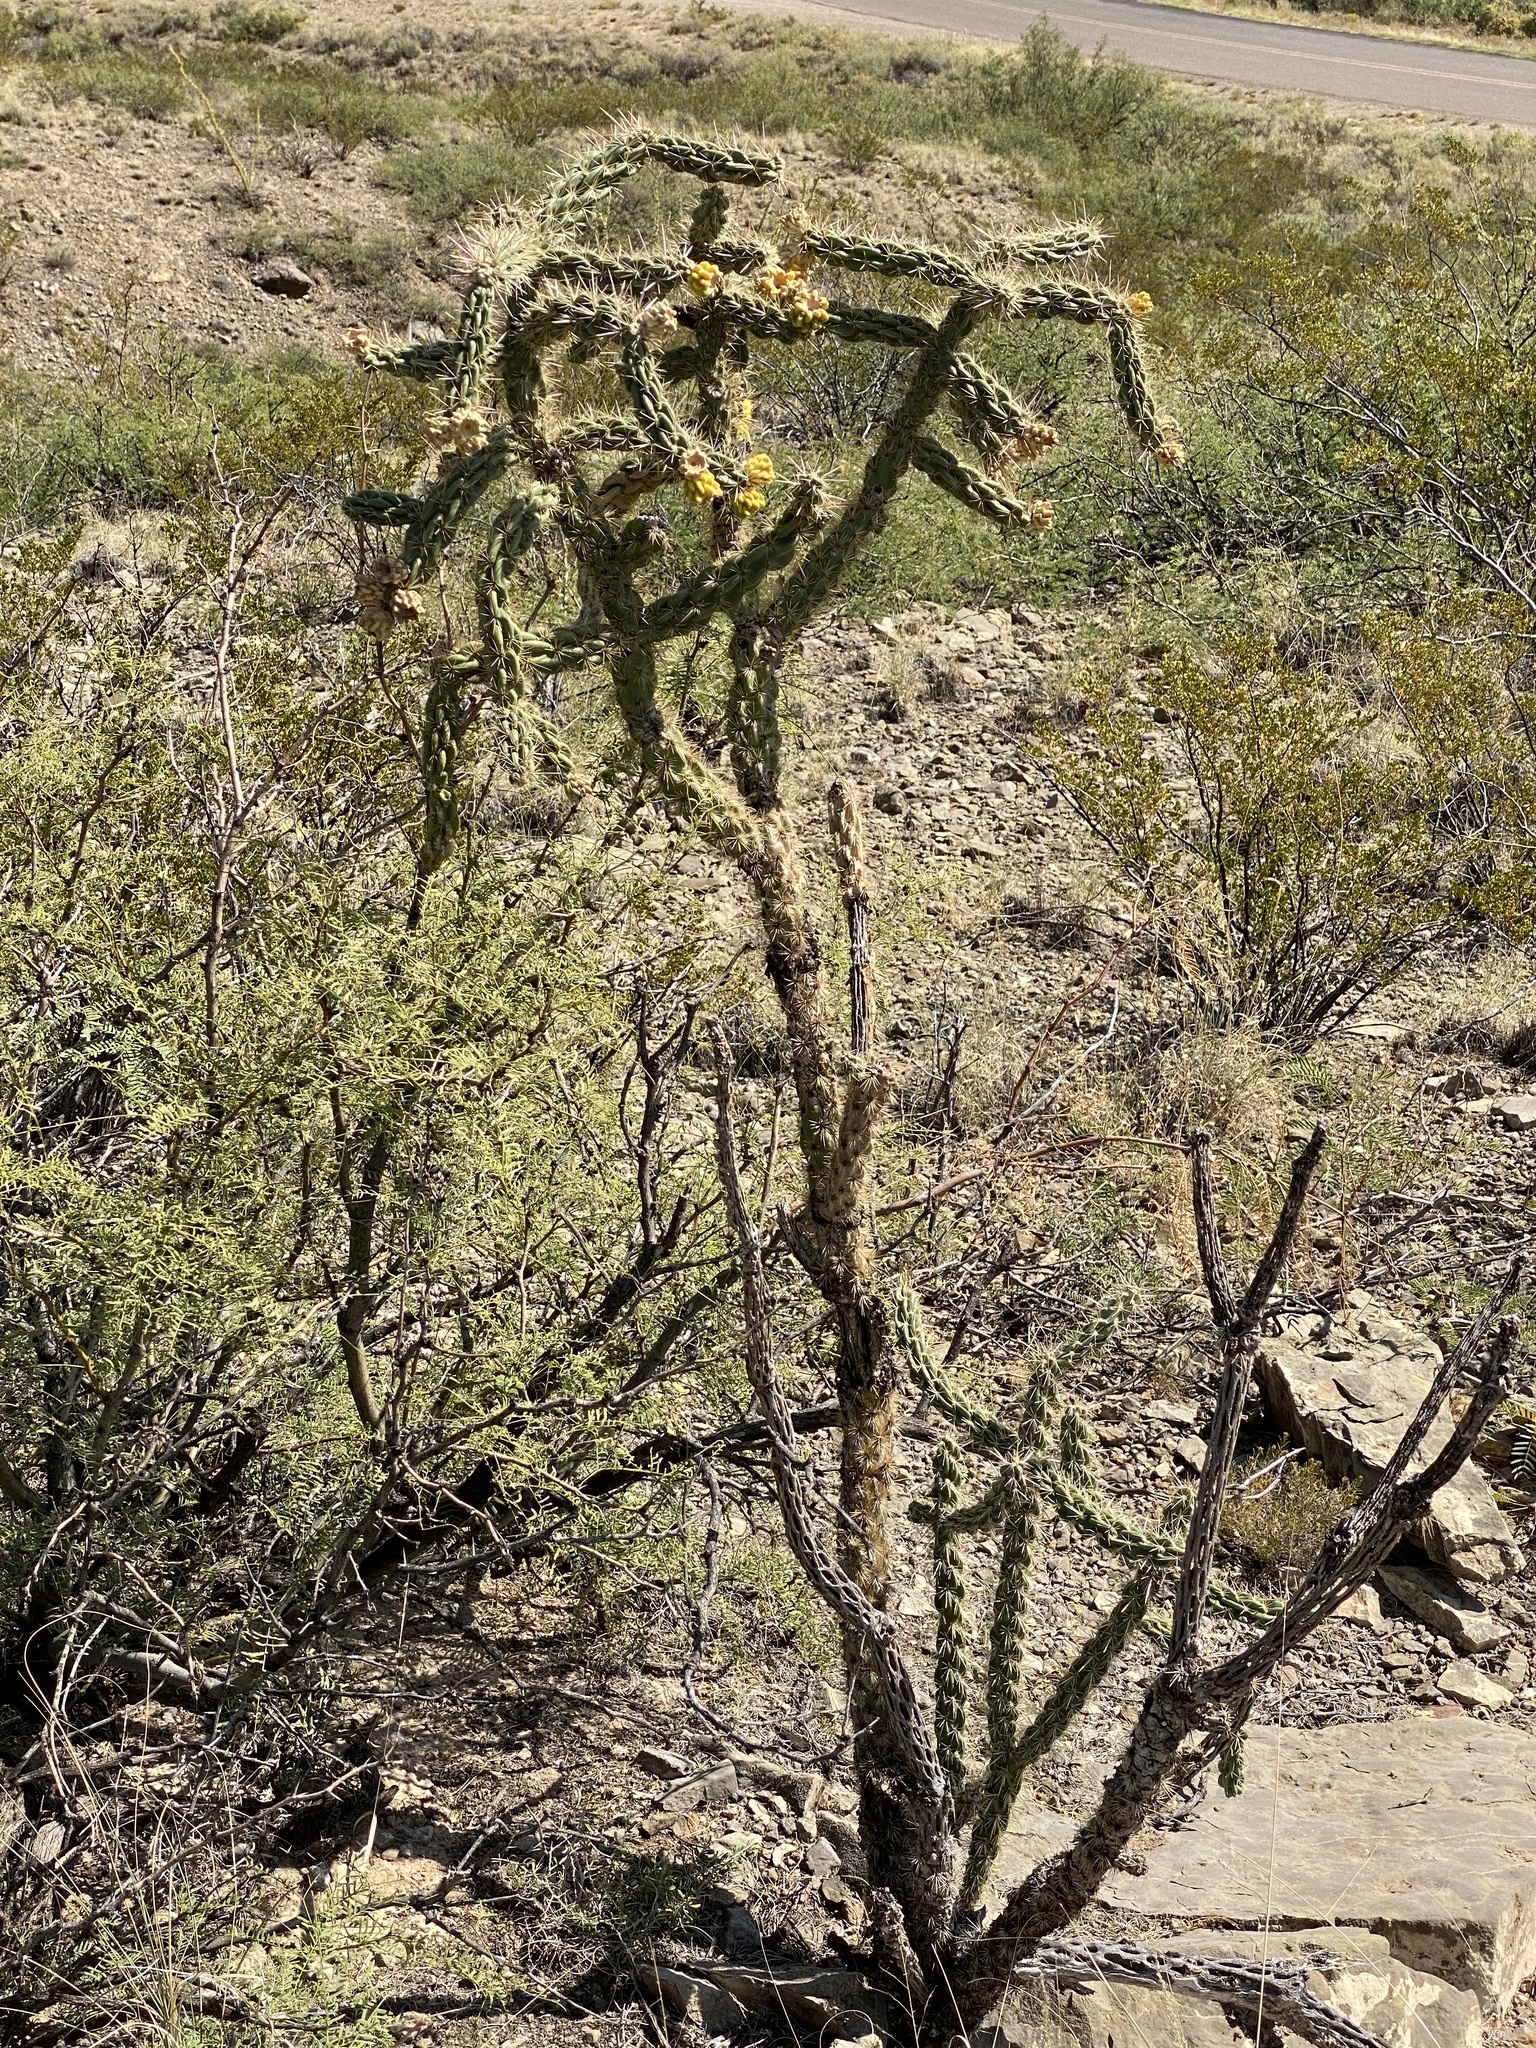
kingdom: Plantae
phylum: Tracheophyta
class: Magnoliopsida
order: Caryophyllales
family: Cactaceae
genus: Cylindropuntia
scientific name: Cylindropuntia imbricata
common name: Candelabrum cactus
